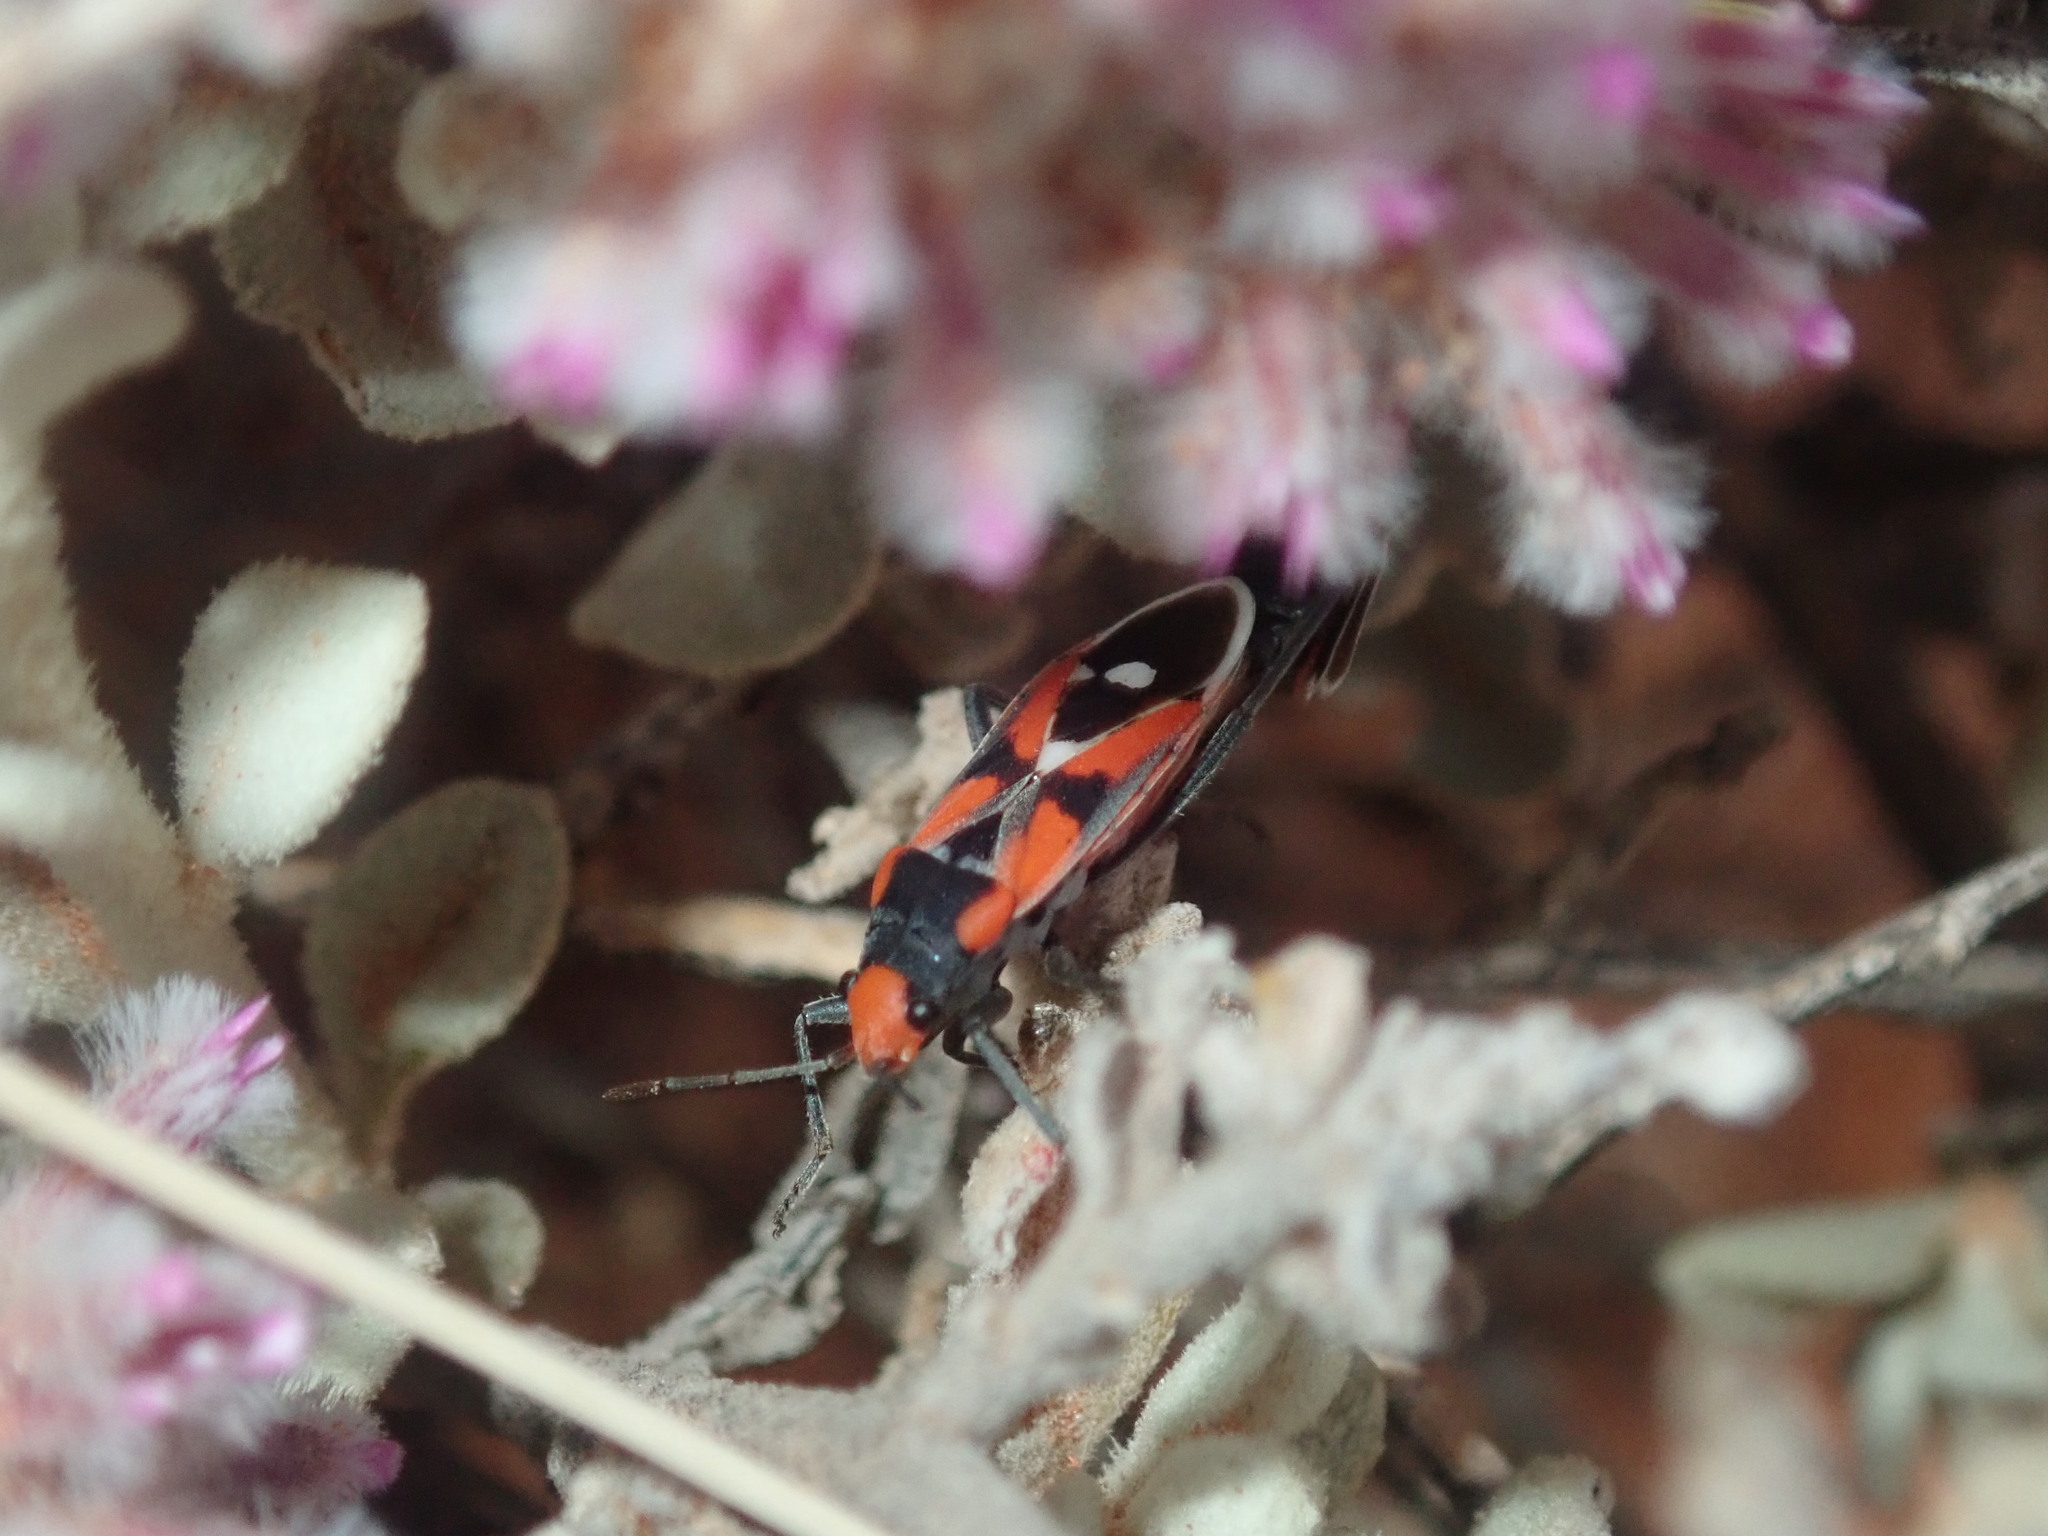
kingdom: Animalia
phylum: Arthropoda
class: Insecta
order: Hemiptera
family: Lygaeidae
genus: Melanerythrus
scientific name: Melanerythrus mactans
